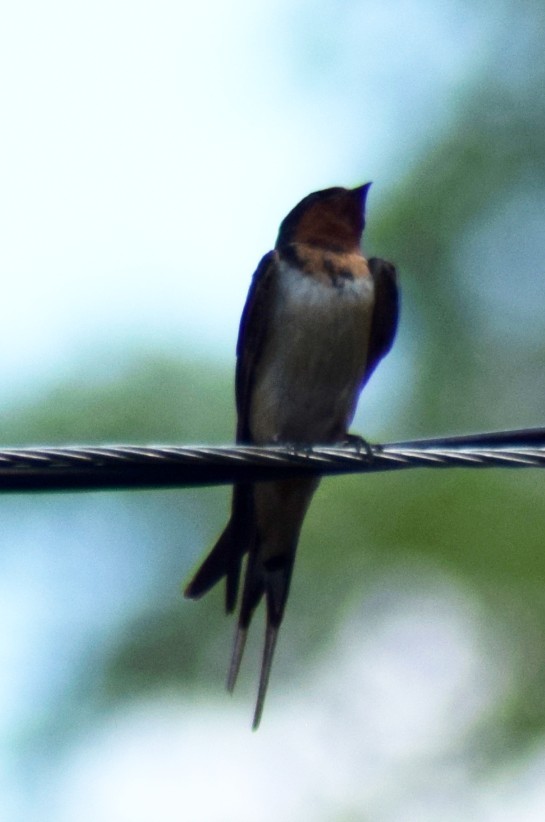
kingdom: Animalia
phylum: Chordata
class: Aves
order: Passeriformes
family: Hirundinidae
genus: Hirundo
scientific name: Hirundo rustica
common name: Barn swallow
